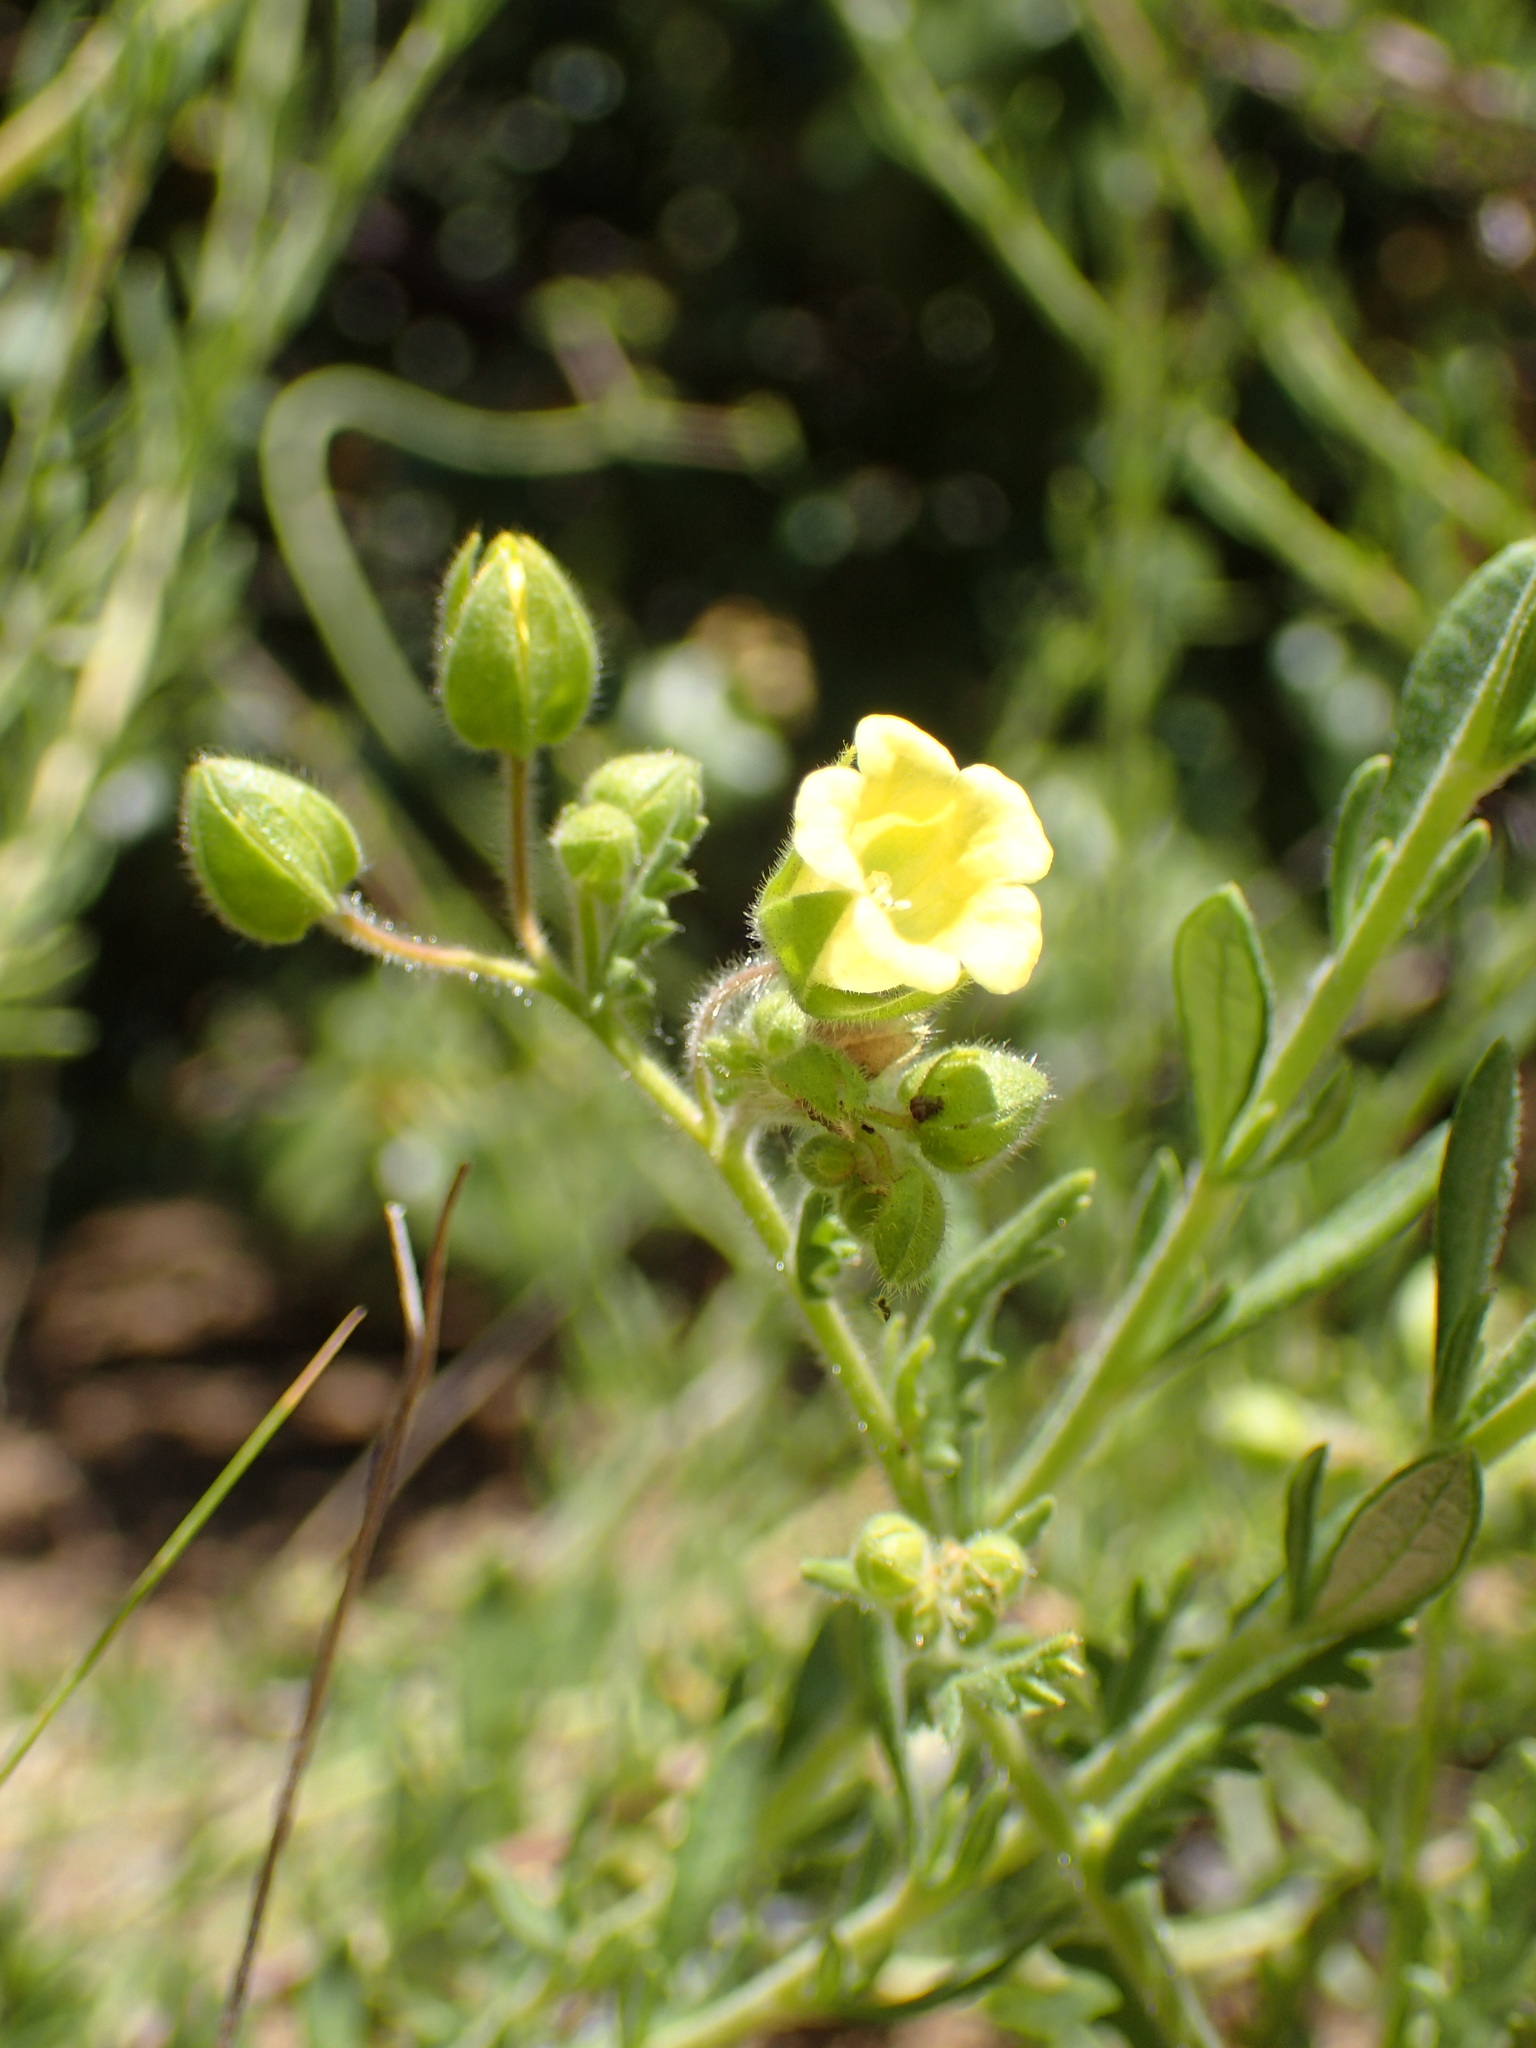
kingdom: Plantae
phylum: Tracheophyta
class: Magnoliopsida
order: Boraginales
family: Hydrophyllaceae
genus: Emmenanthe
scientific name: Emmenanthe penduliflora
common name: Whispering-bells
